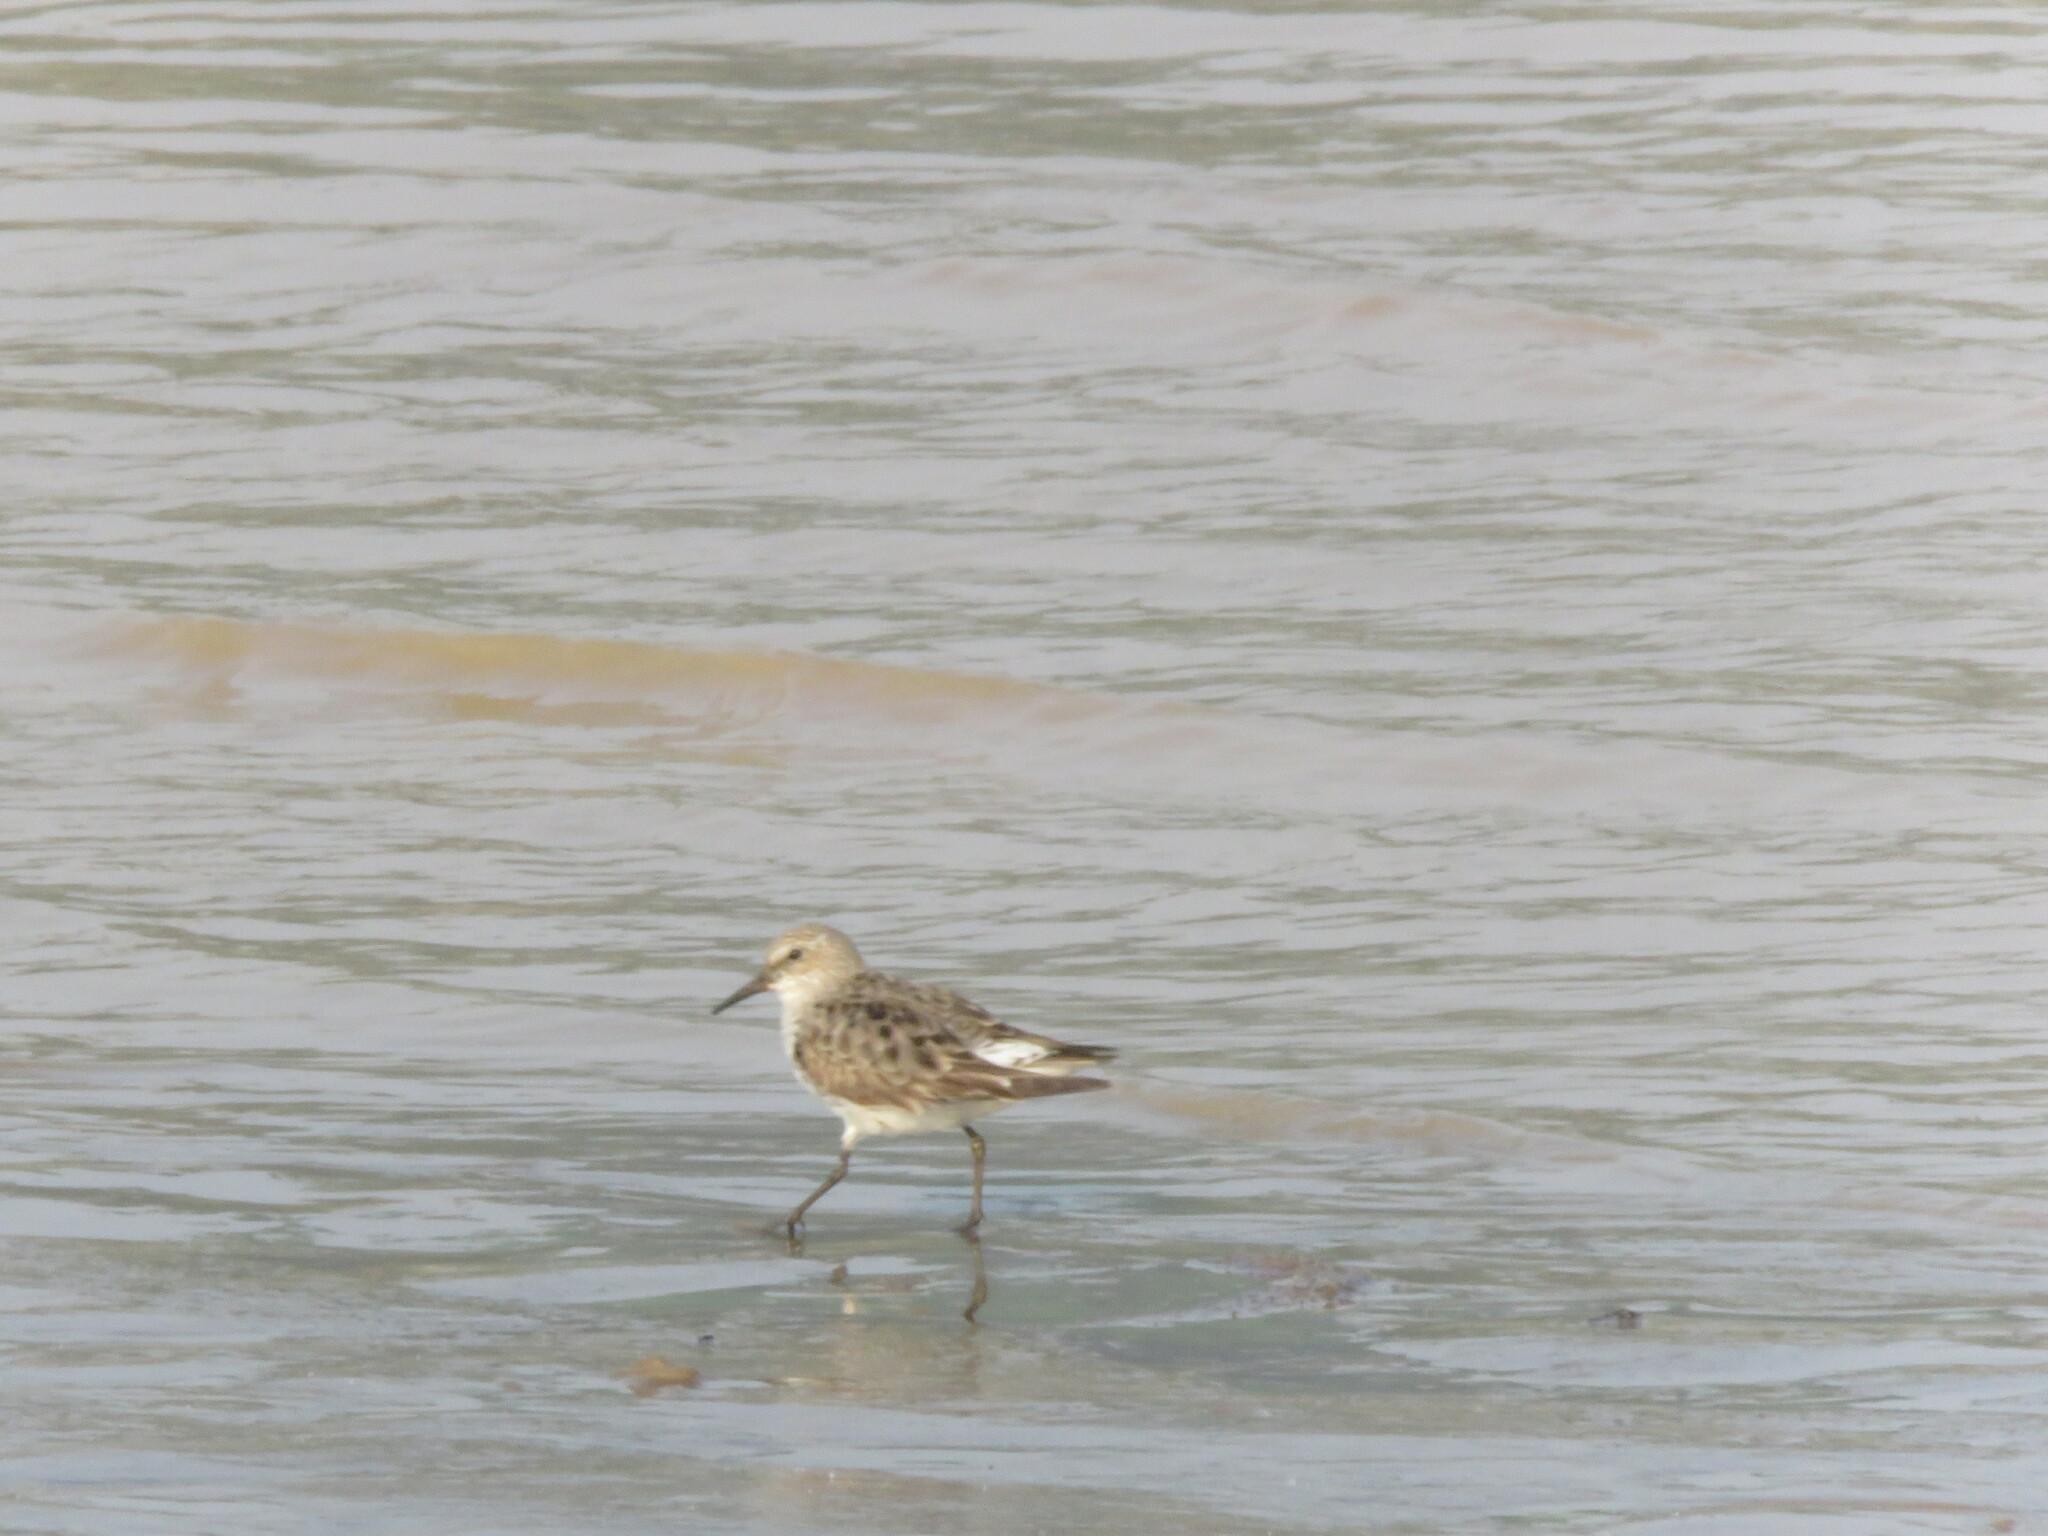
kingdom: Animalia
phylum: Chordata
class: Aves
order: Charadriiformes
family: Scolopacidae
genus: Calidris
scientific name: Calidris fuscicollis
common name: White-rumped sandpiper
